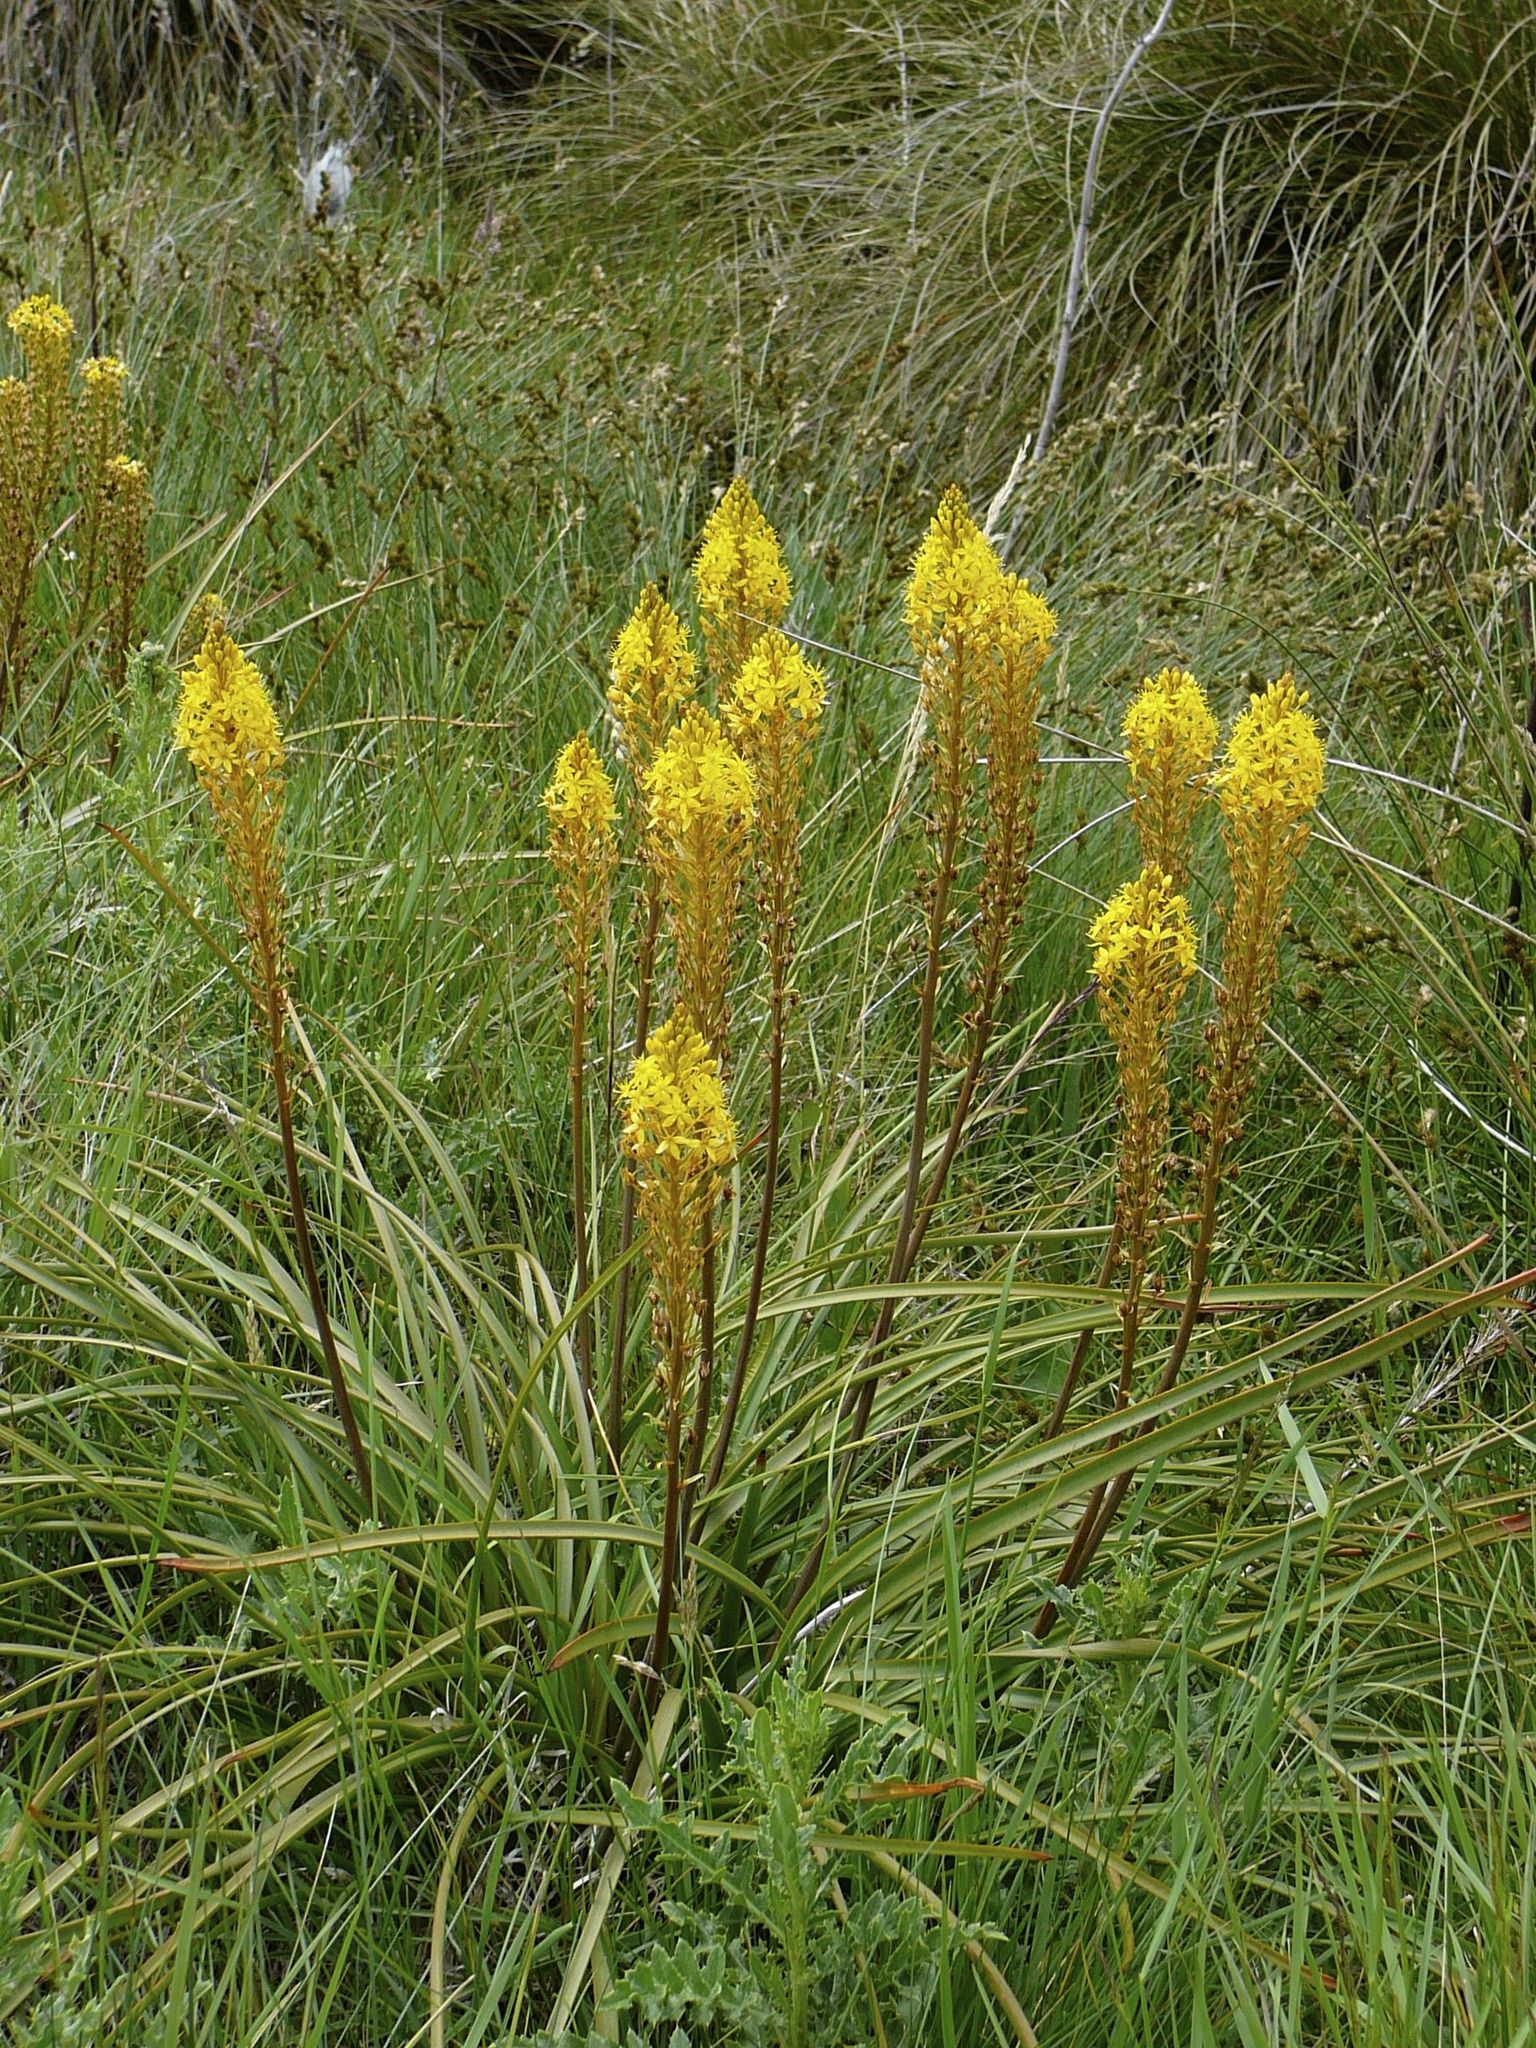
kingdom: Plantae
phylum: Tracheophyta
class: Liliopsida
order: Asparagales
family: Asphodelaceae
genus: Bulbinella
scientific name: Bulbinella angustifolia
